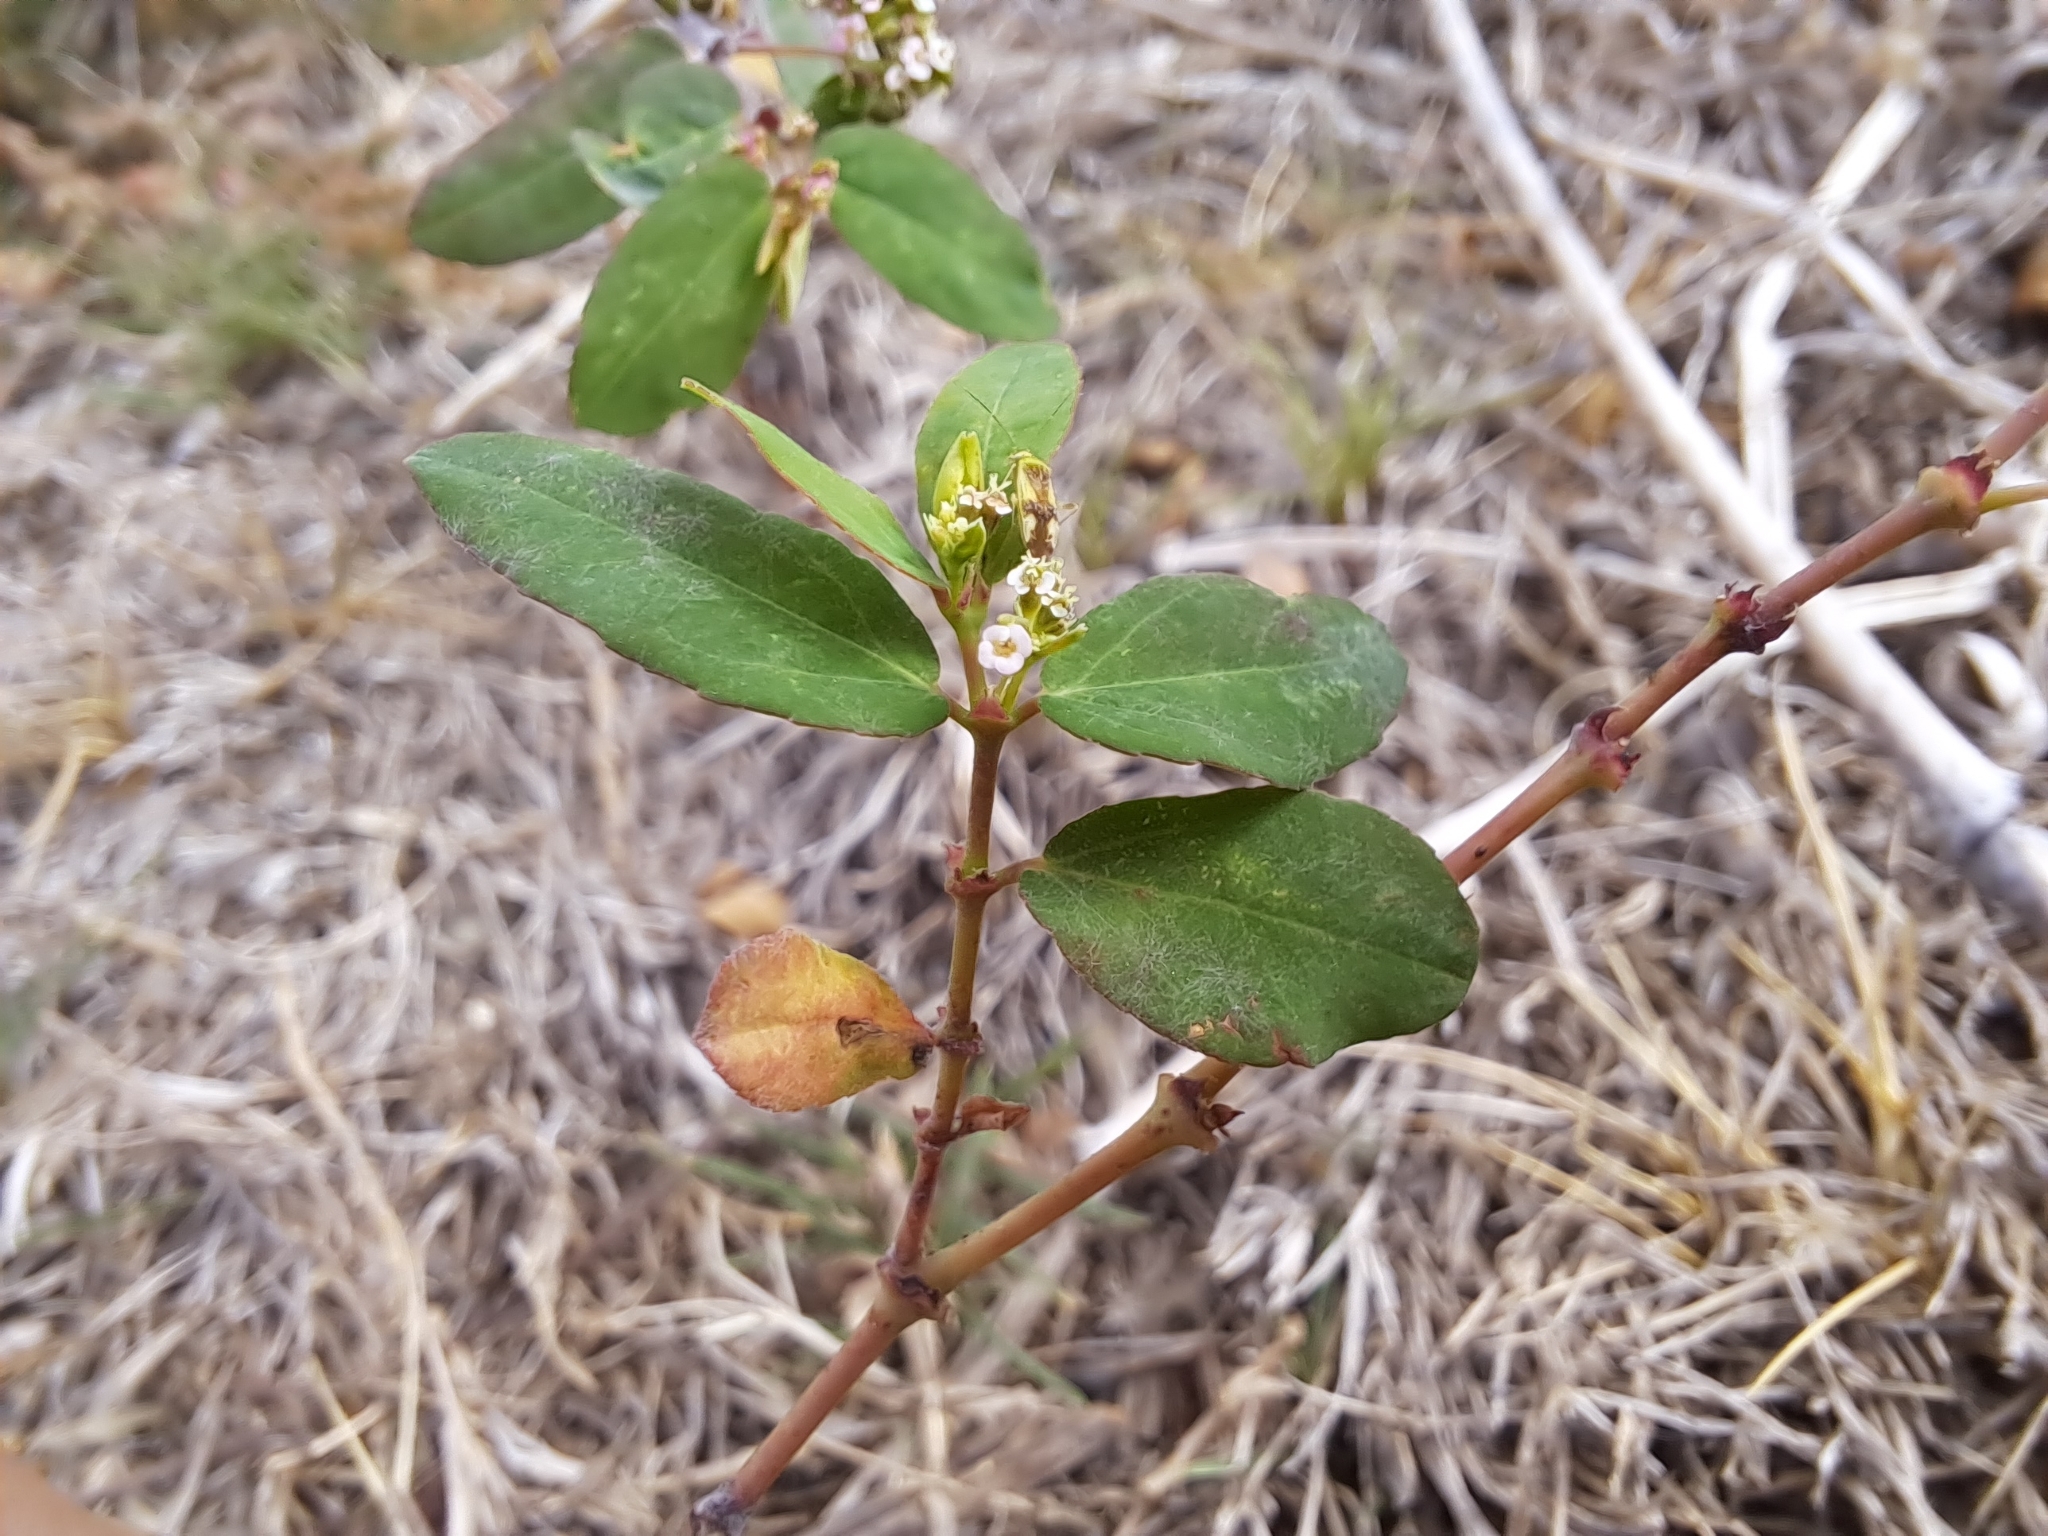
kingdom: Plantae
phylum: Tracheophyta
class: Magnoliopsida
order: Malpighiales
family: Euphorbiaceae
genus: Euphorbia
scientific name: Euphorbia hypericifolia
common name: Graceful sandmat
